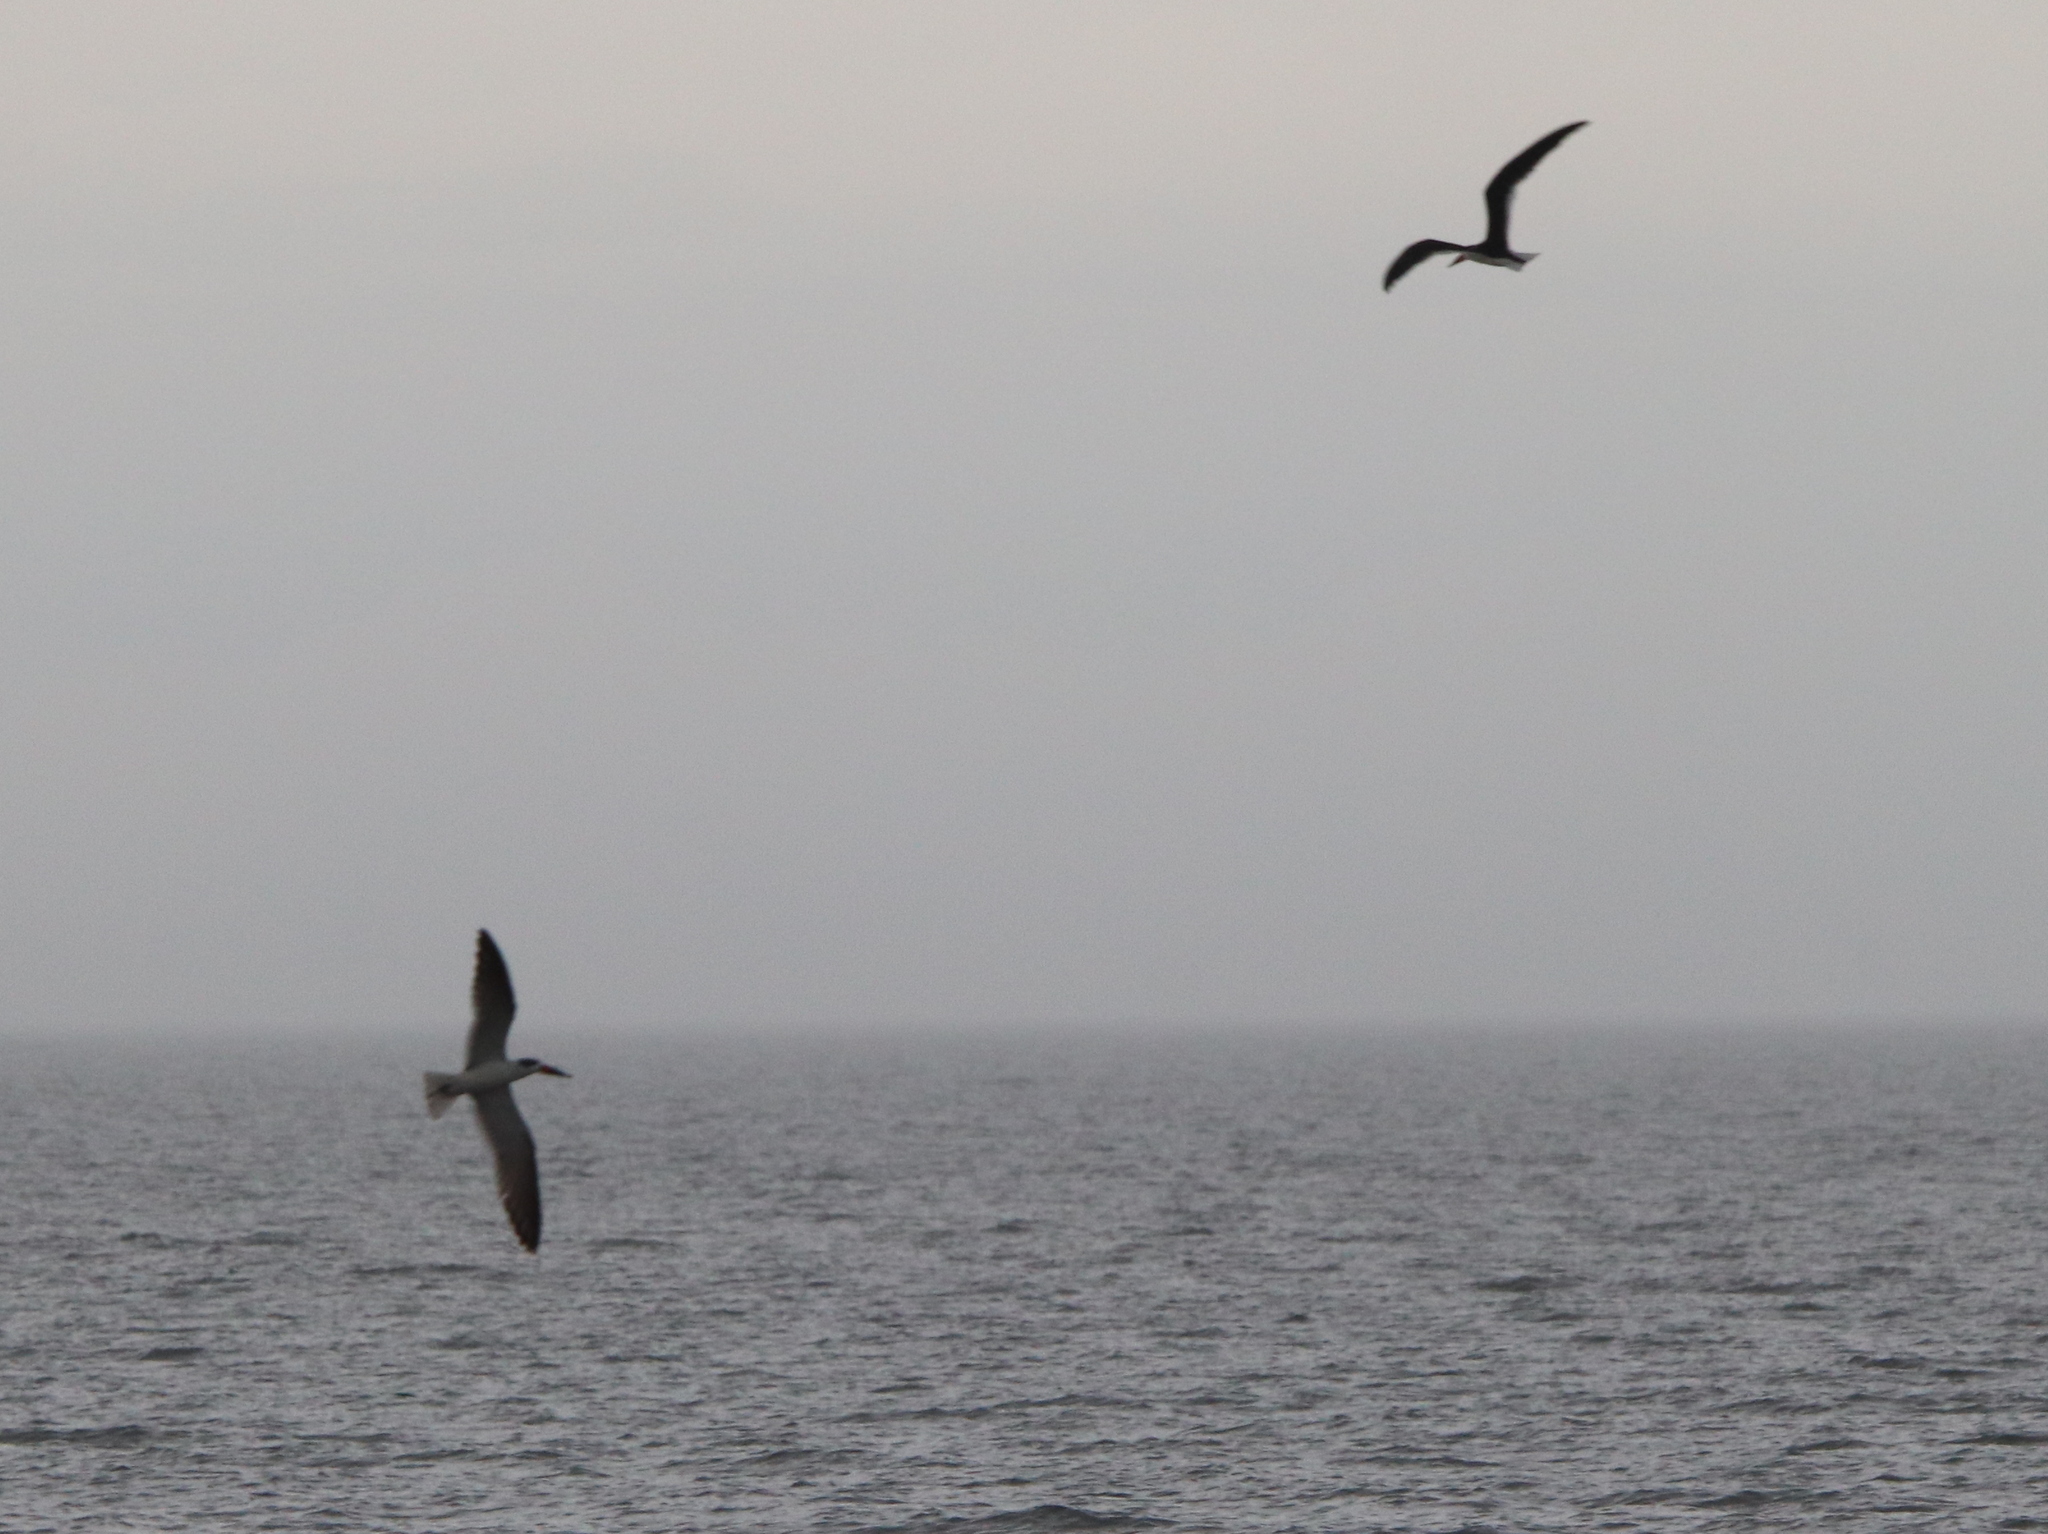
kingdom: Animalia
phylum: Chordata
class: Aves
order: Charadriiformes
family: Laridae
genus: Rynchops
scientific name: Rynchops niger
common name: Black skimmer
